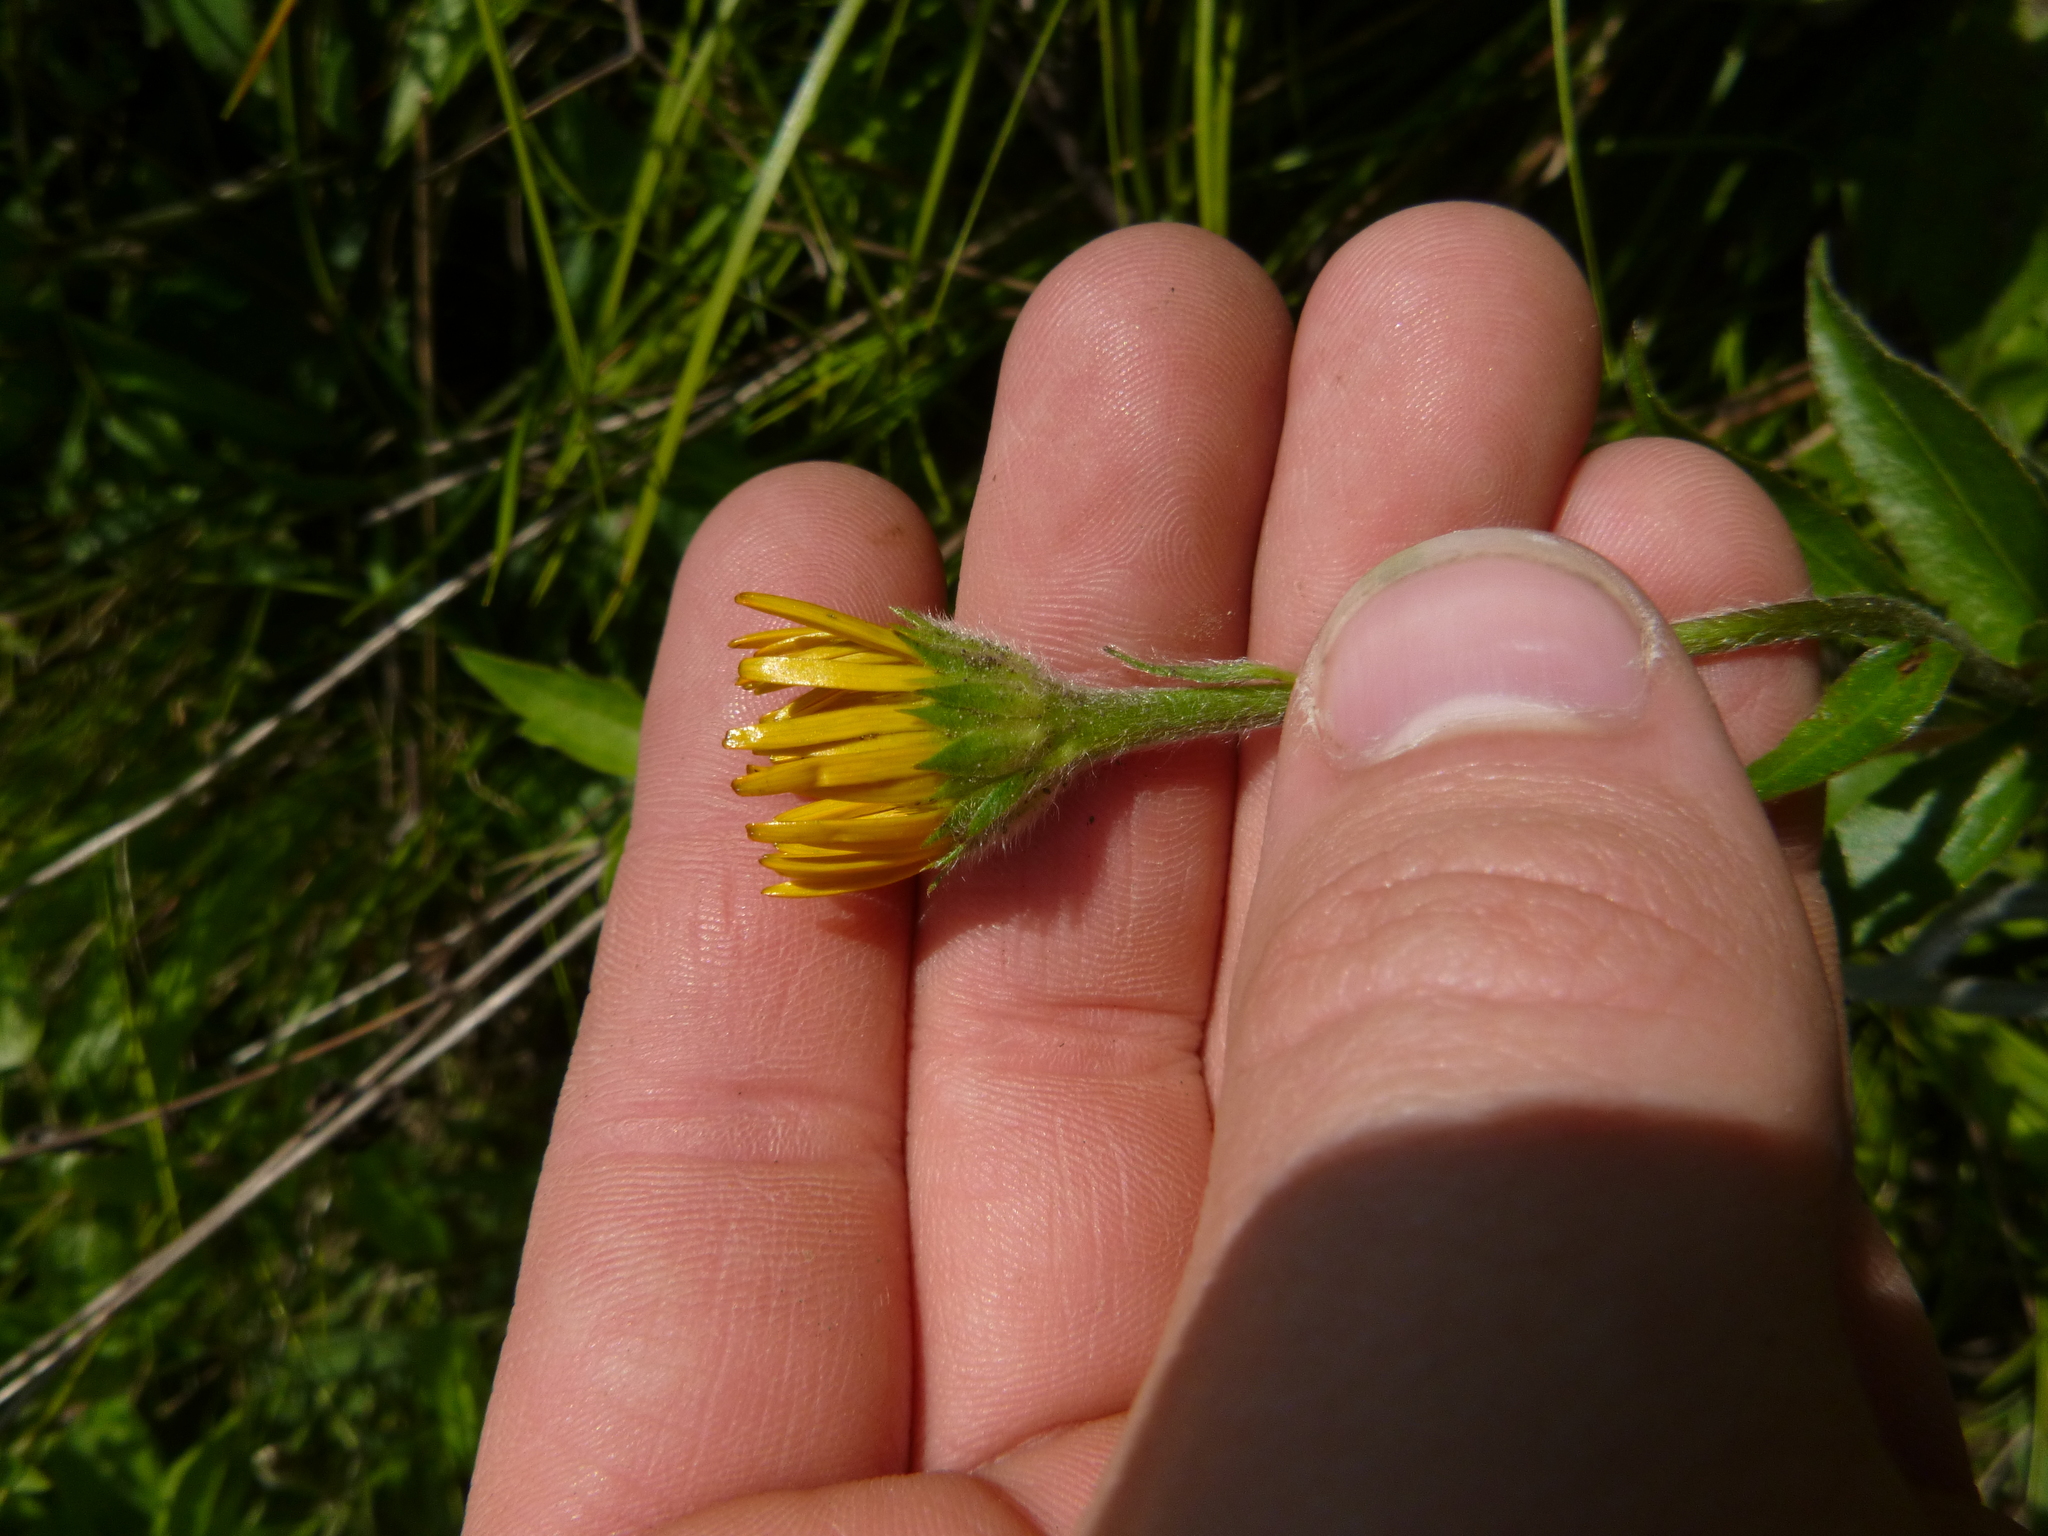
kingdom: Plantae
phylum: Tracheophyta
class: Magnoliopsida
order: Asterales
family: Asteraceae
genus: Buphthalmum
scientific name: Buphthalmum salicifolium
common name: Willow-leaved yellow-oxeye
